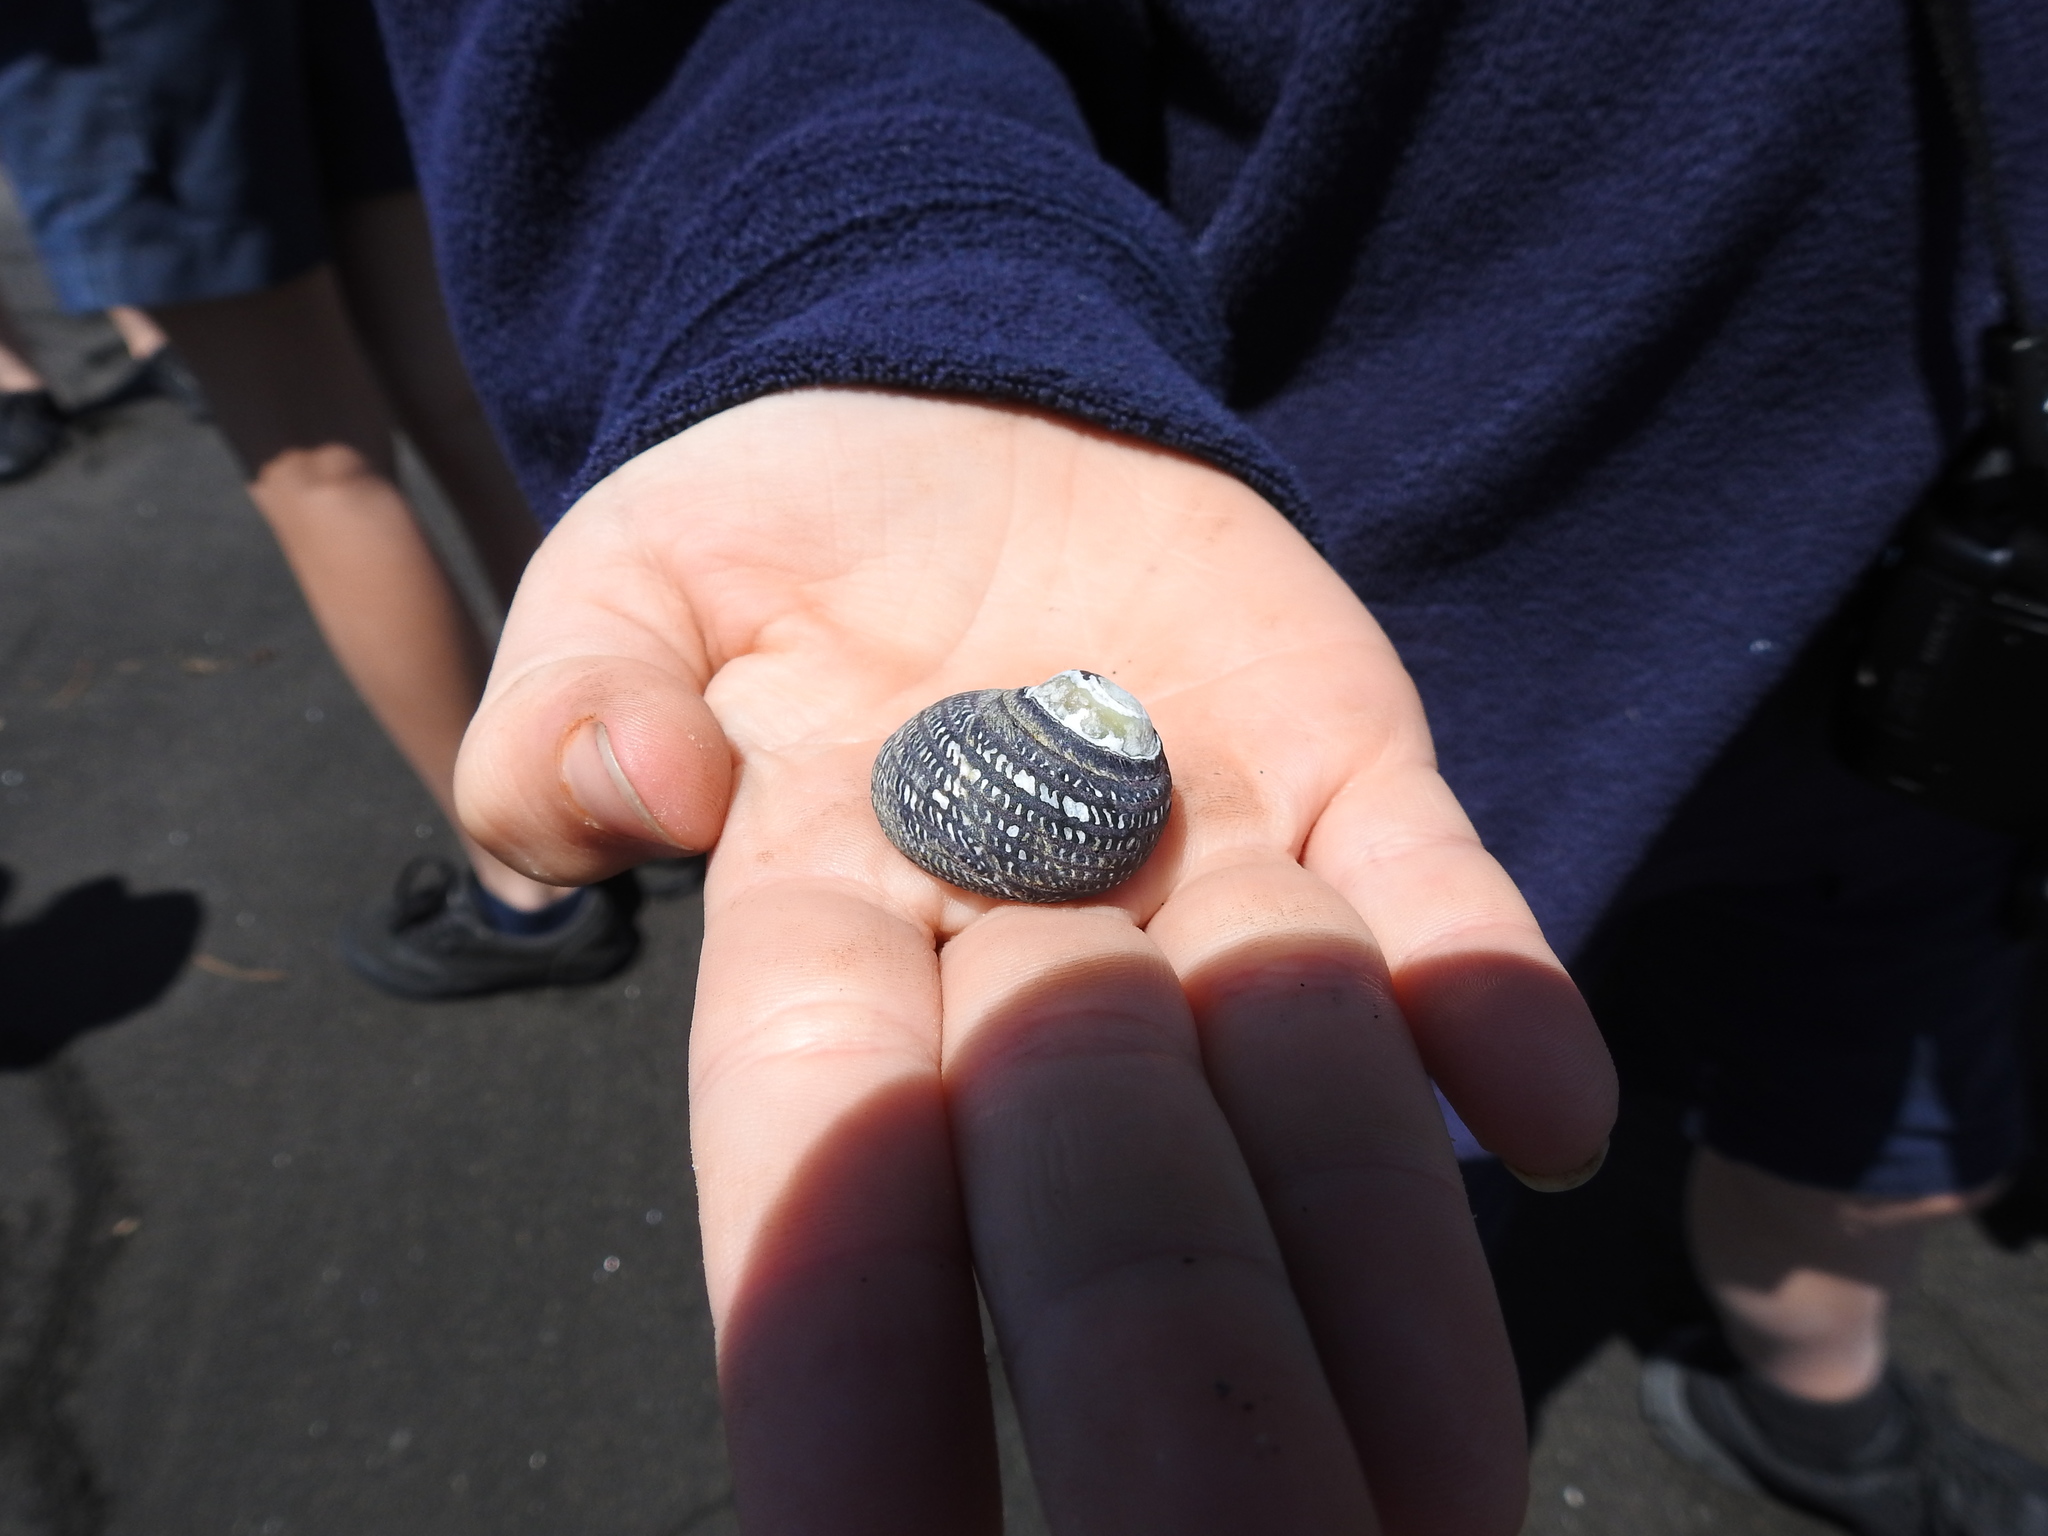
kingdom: Animalia
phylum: Mollusca
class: Gastropoda
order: Trochida
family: Trochidae
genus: Diloma
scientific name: Diloma aethiops
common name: Scorched monodont
